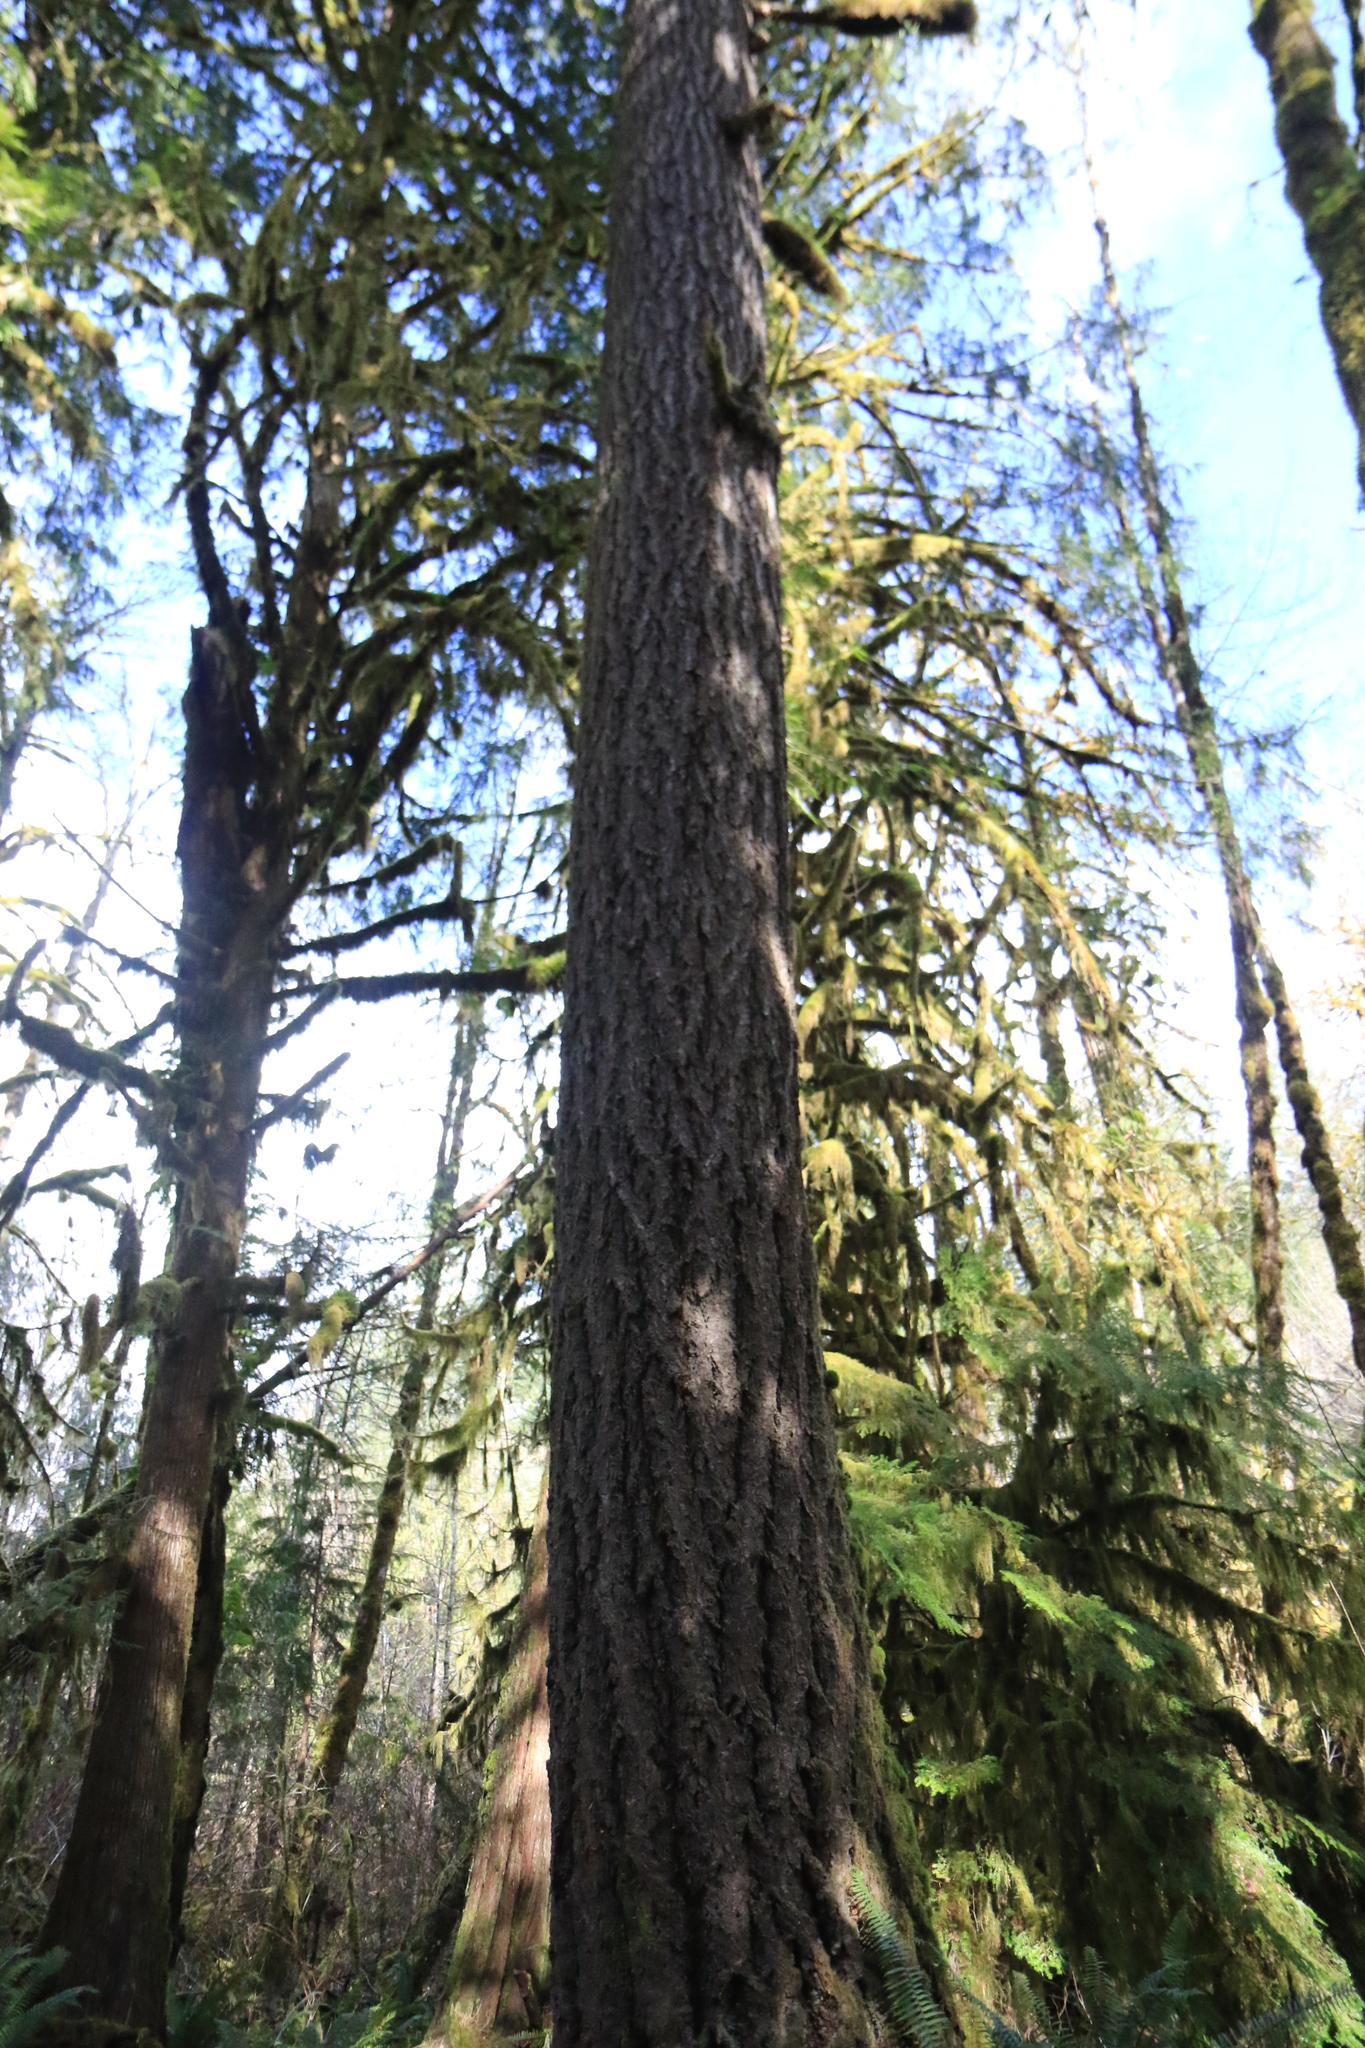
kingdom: Plantae
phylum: Tracheophyta
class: Pinopsida
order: Pinales
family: Pinaceae
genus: Pseudotsuga
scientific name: Pseudotsuga menziesii
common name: Douglas fir
